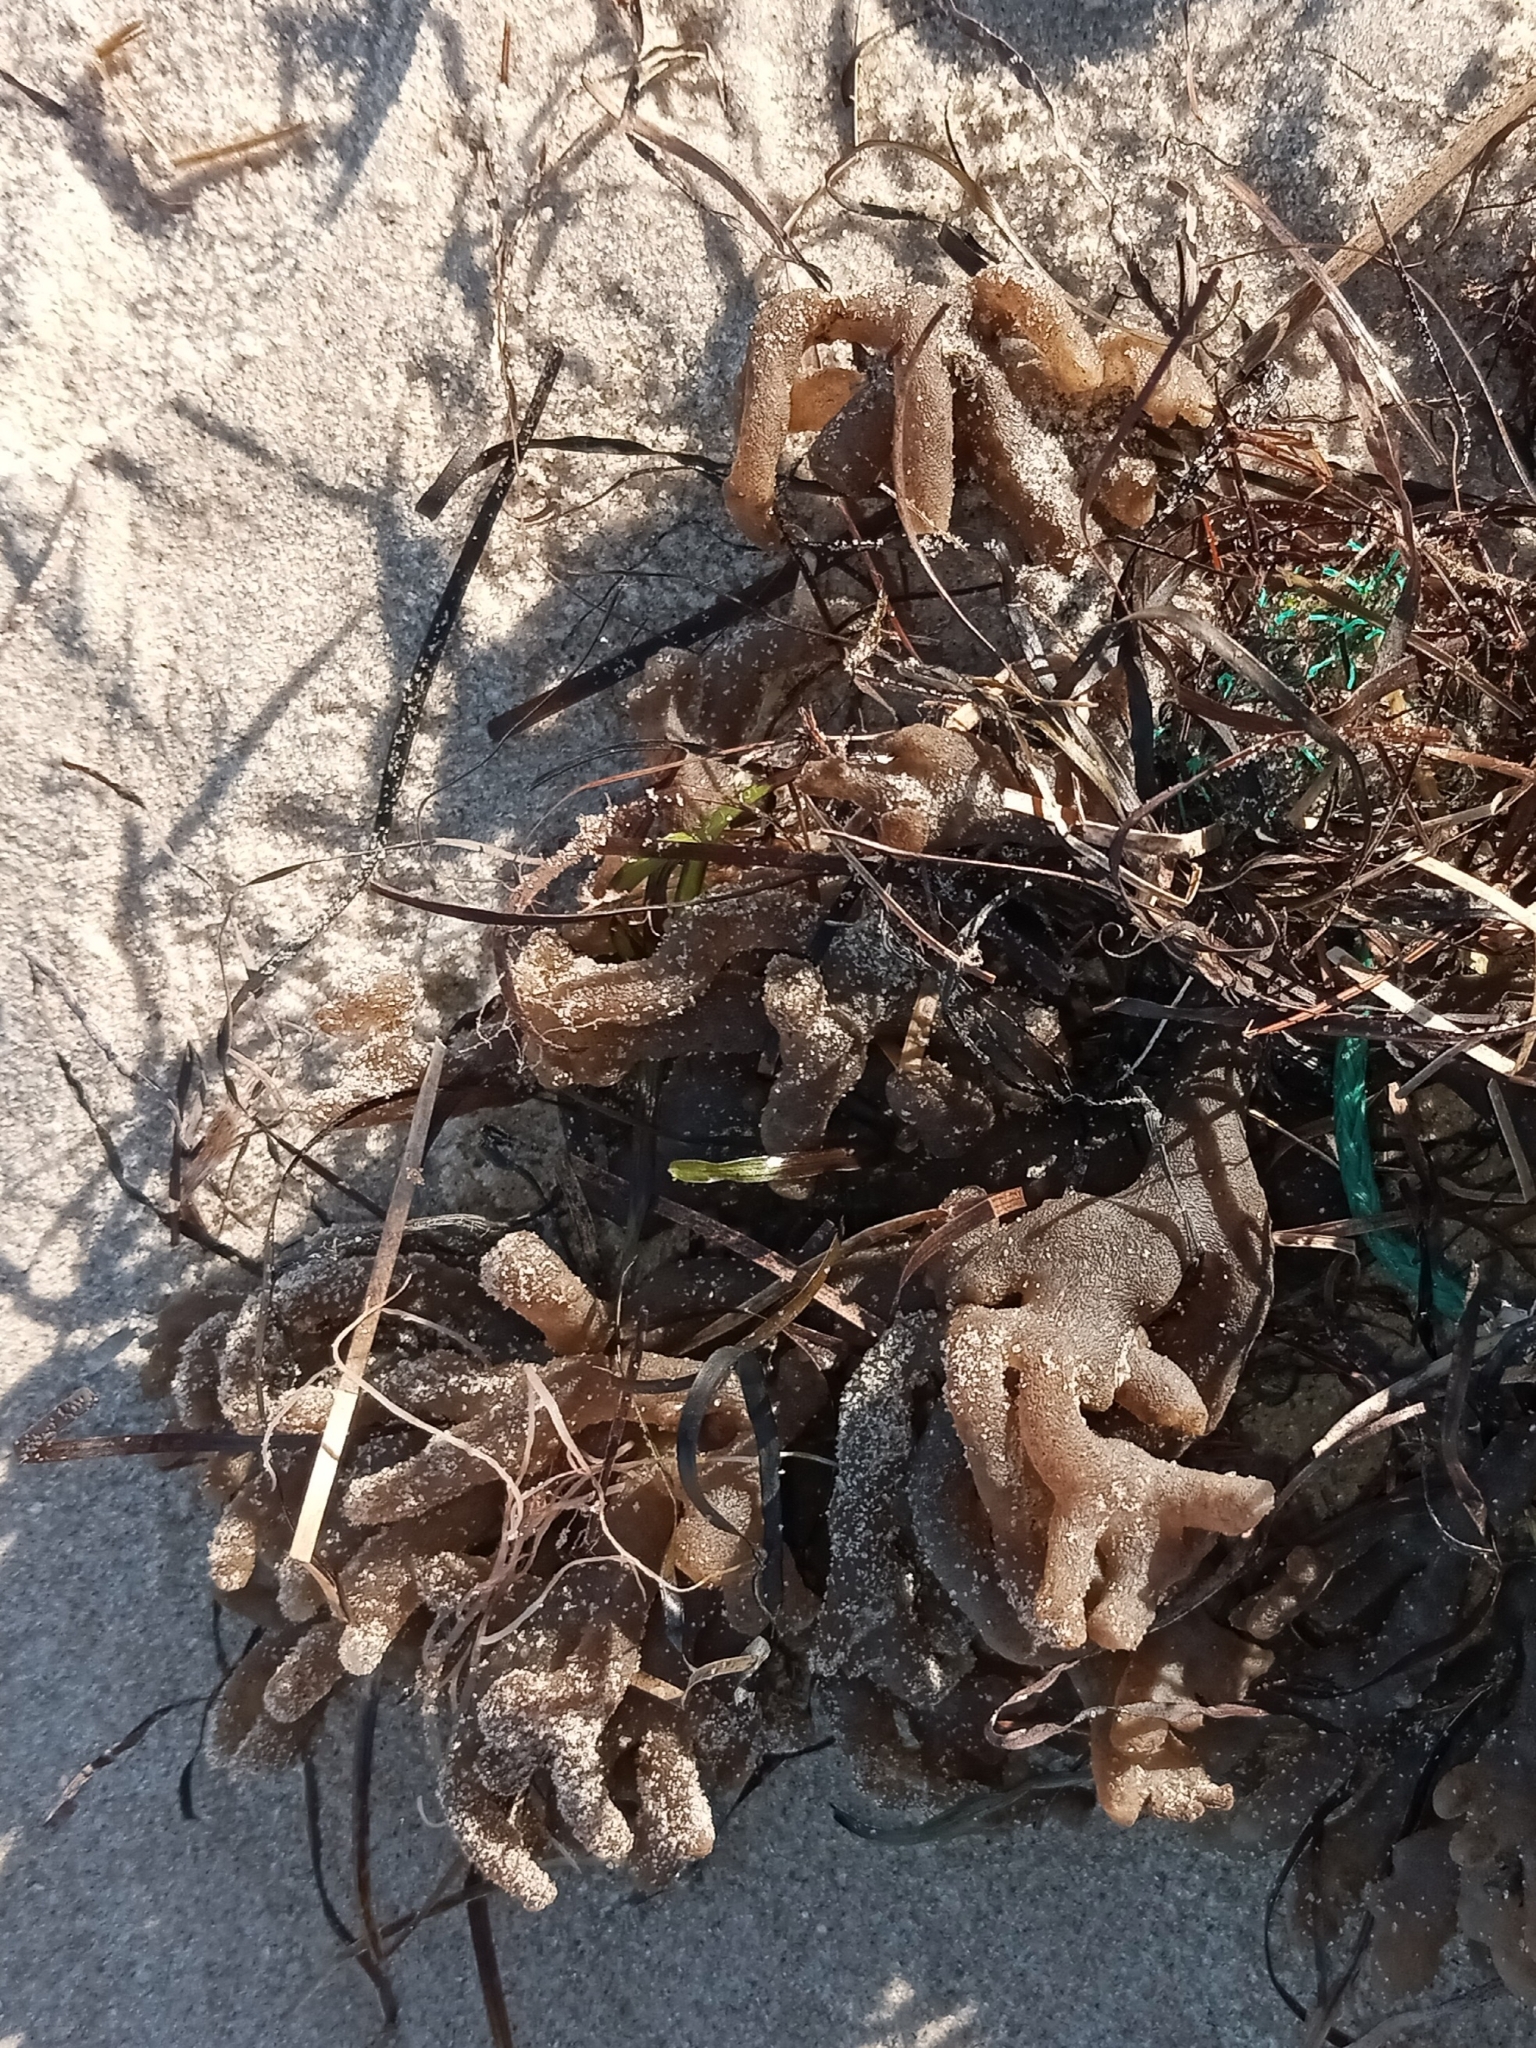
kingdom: Animalia
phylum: Bryozoa
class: Gymnolaemata
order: Ctenostomatida
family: Alcyonidiidae
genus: Alcyonidium
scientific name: Alcyonidium hauffi
